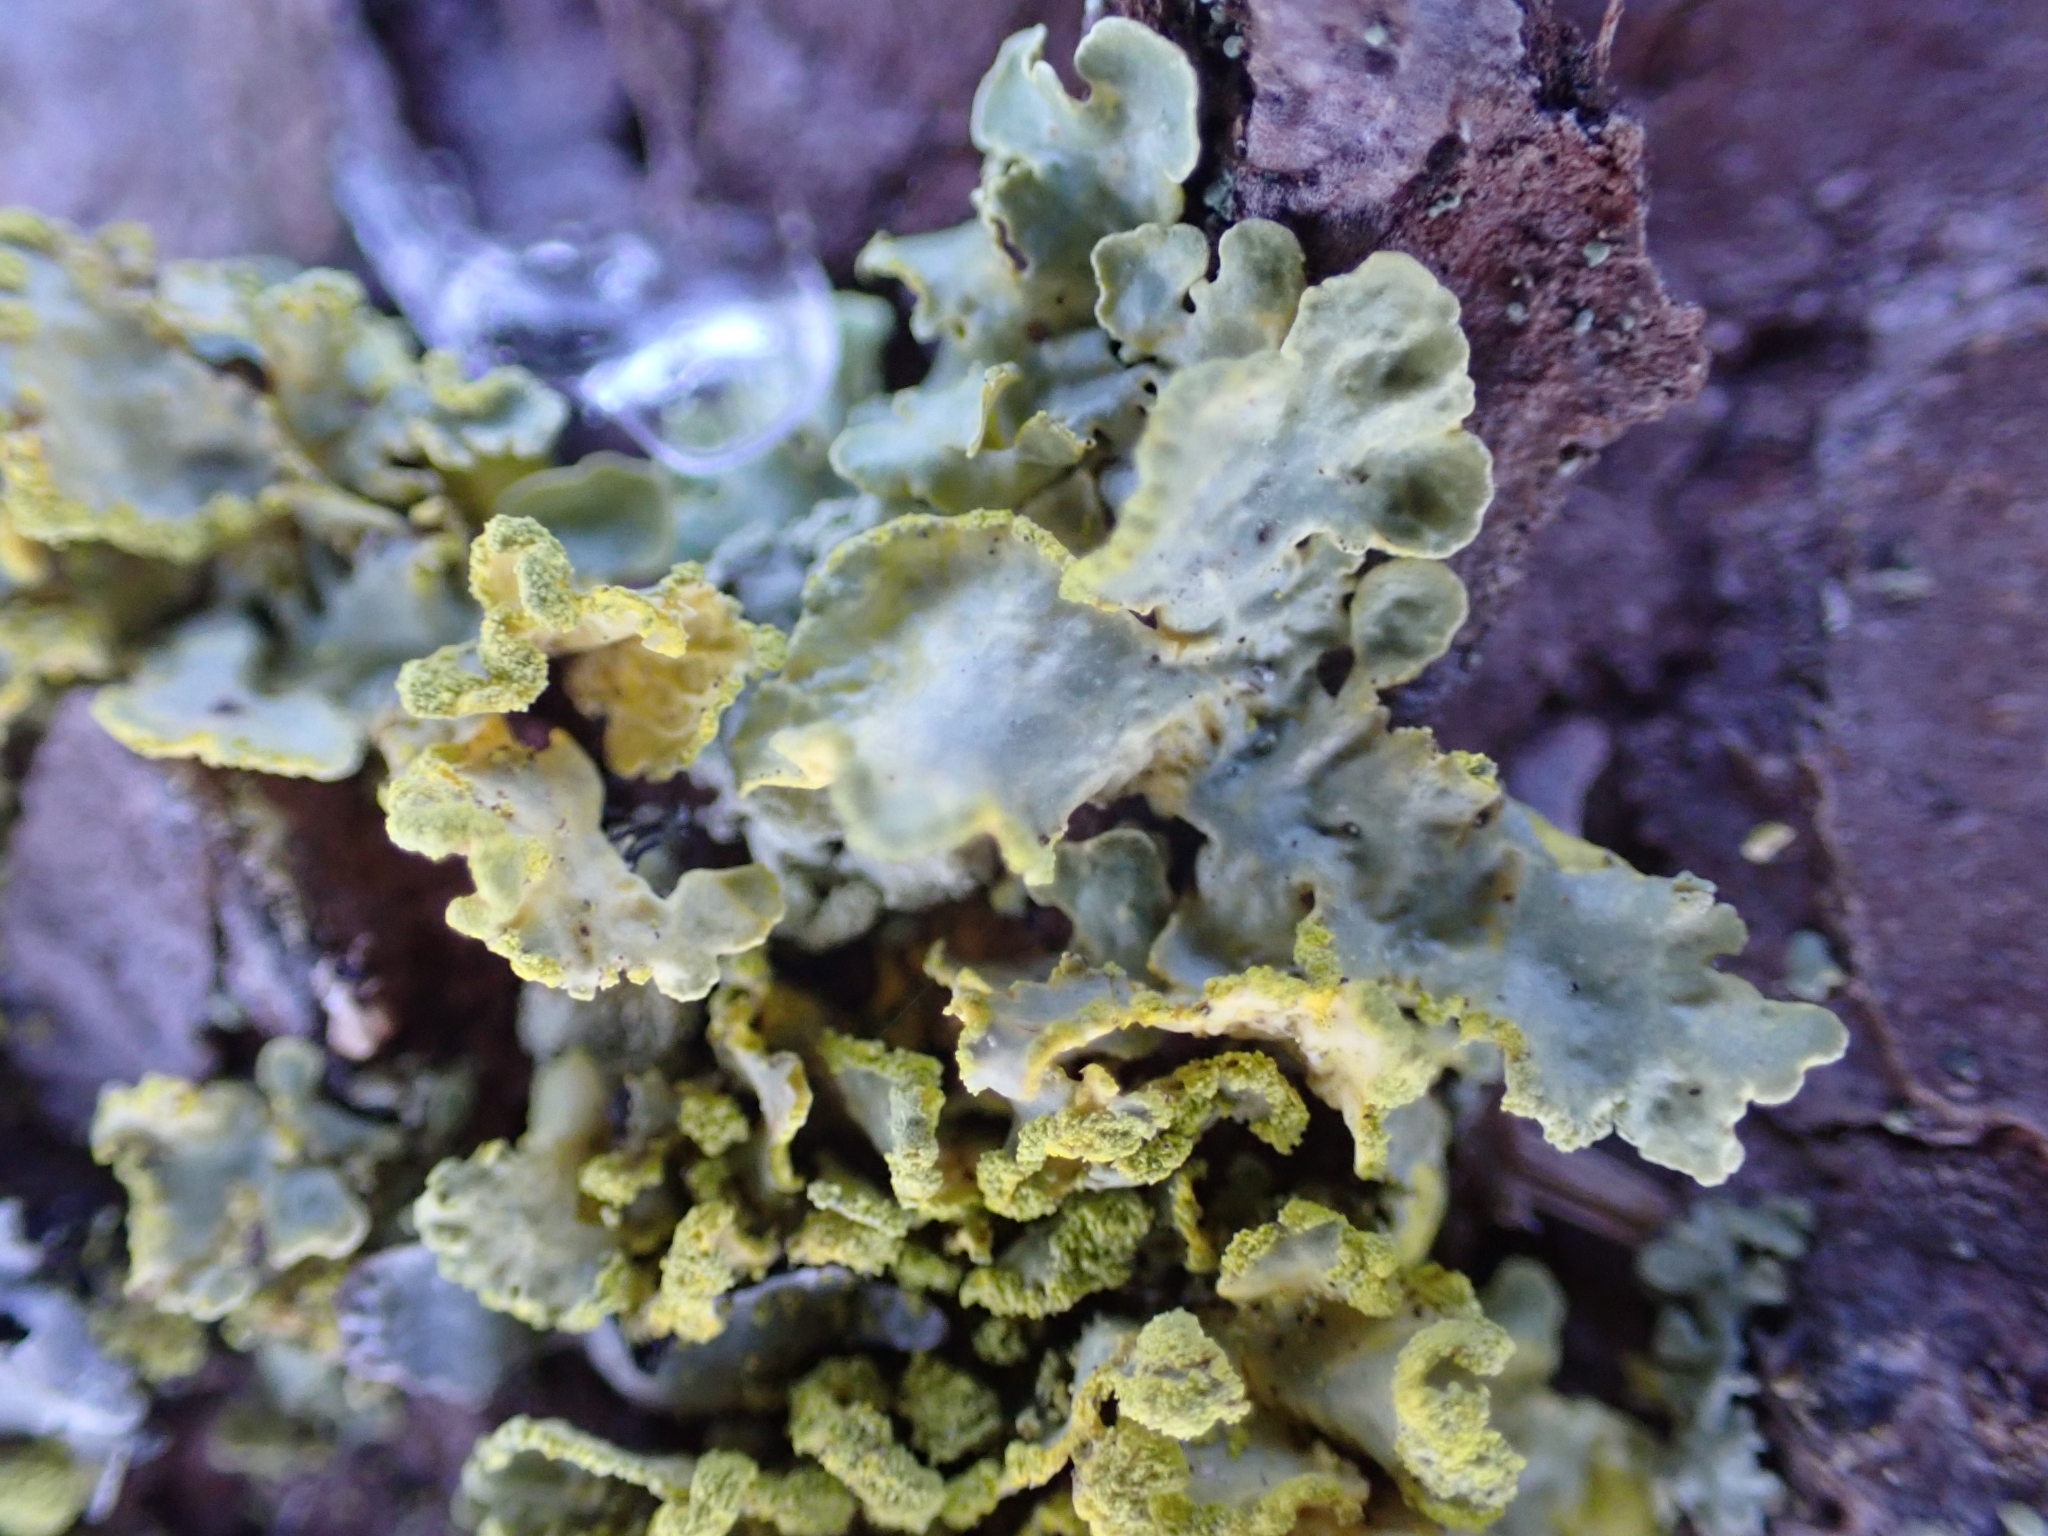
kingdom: Fungi
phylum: Ascomycota
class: Lecanoromycetes
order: Lecanorales
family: Parmeliaceae
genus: Vulpicida
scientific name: Vulpicida pinastri
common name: Powdered sunshine lichen
